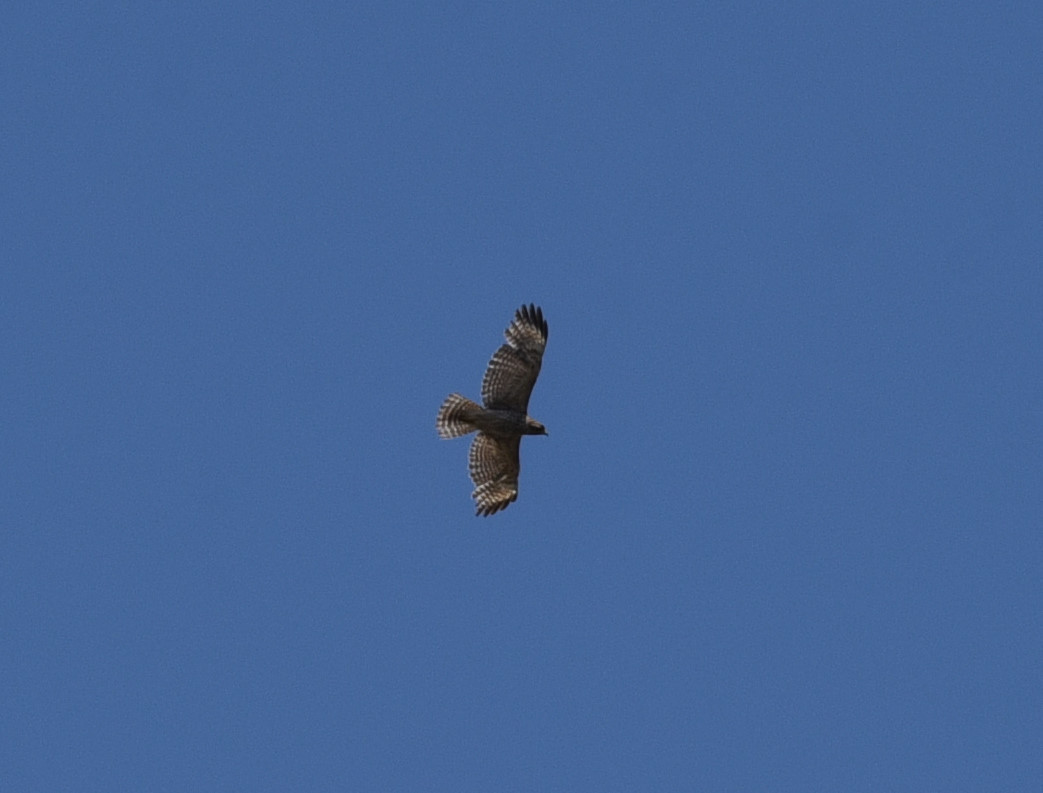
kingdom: Animalia
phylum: Chordata
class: Aves
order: Accipitriformes
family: Accipitridae
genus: Buteo
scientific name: Buteo lineatus
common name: Red-shouldered hawk
